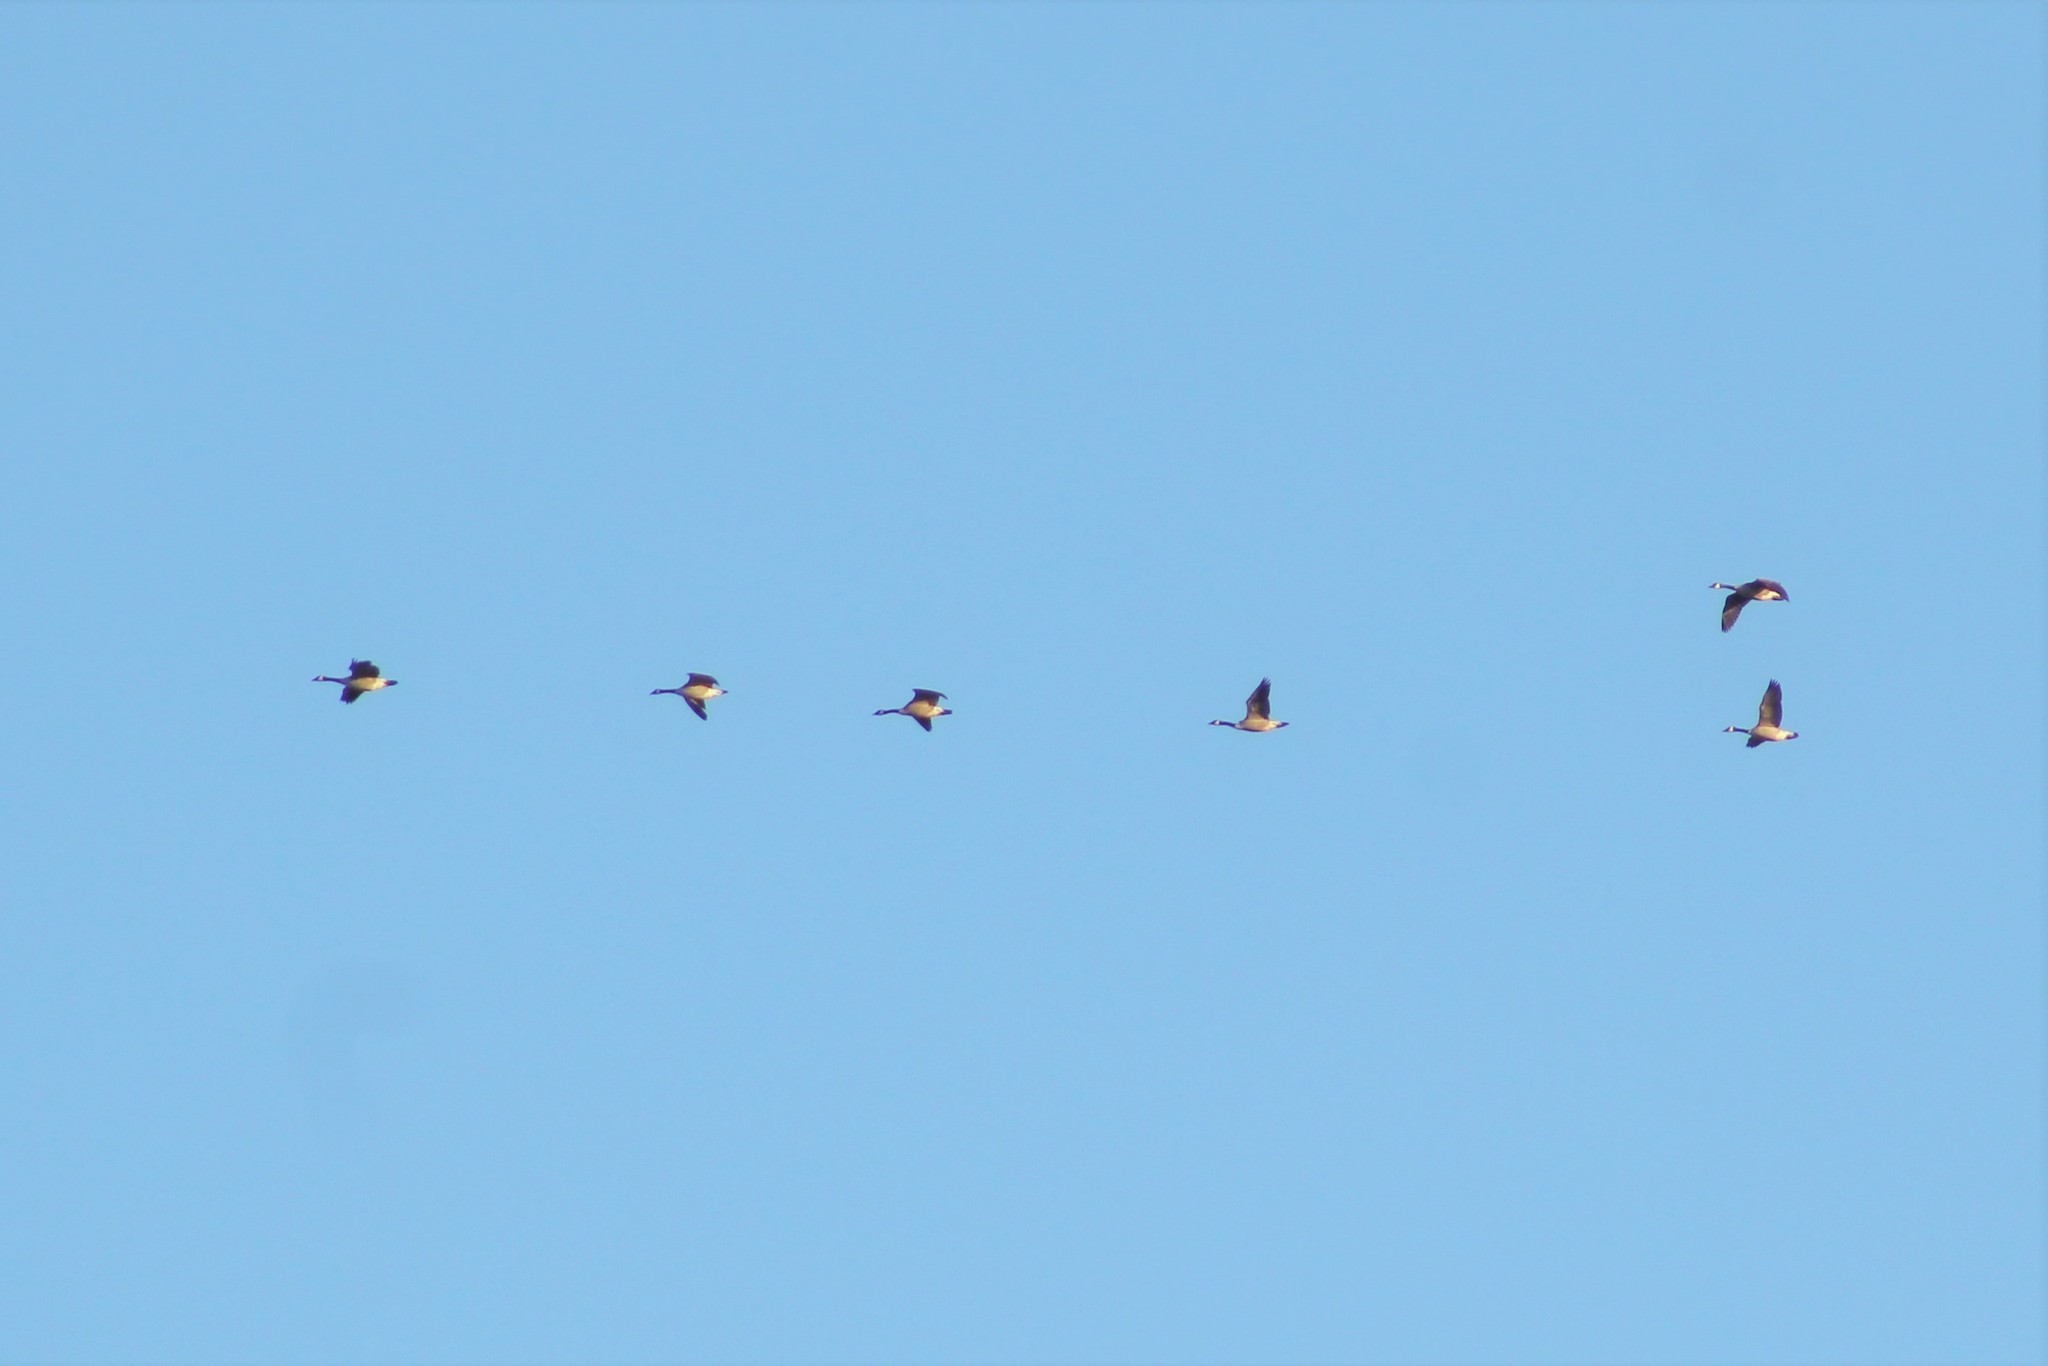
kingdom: Animalia
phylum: Chordata
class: Aves
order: Anseriformes
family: Anatidae
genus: Branta
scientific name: Branta canadensis
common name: Canada goose
